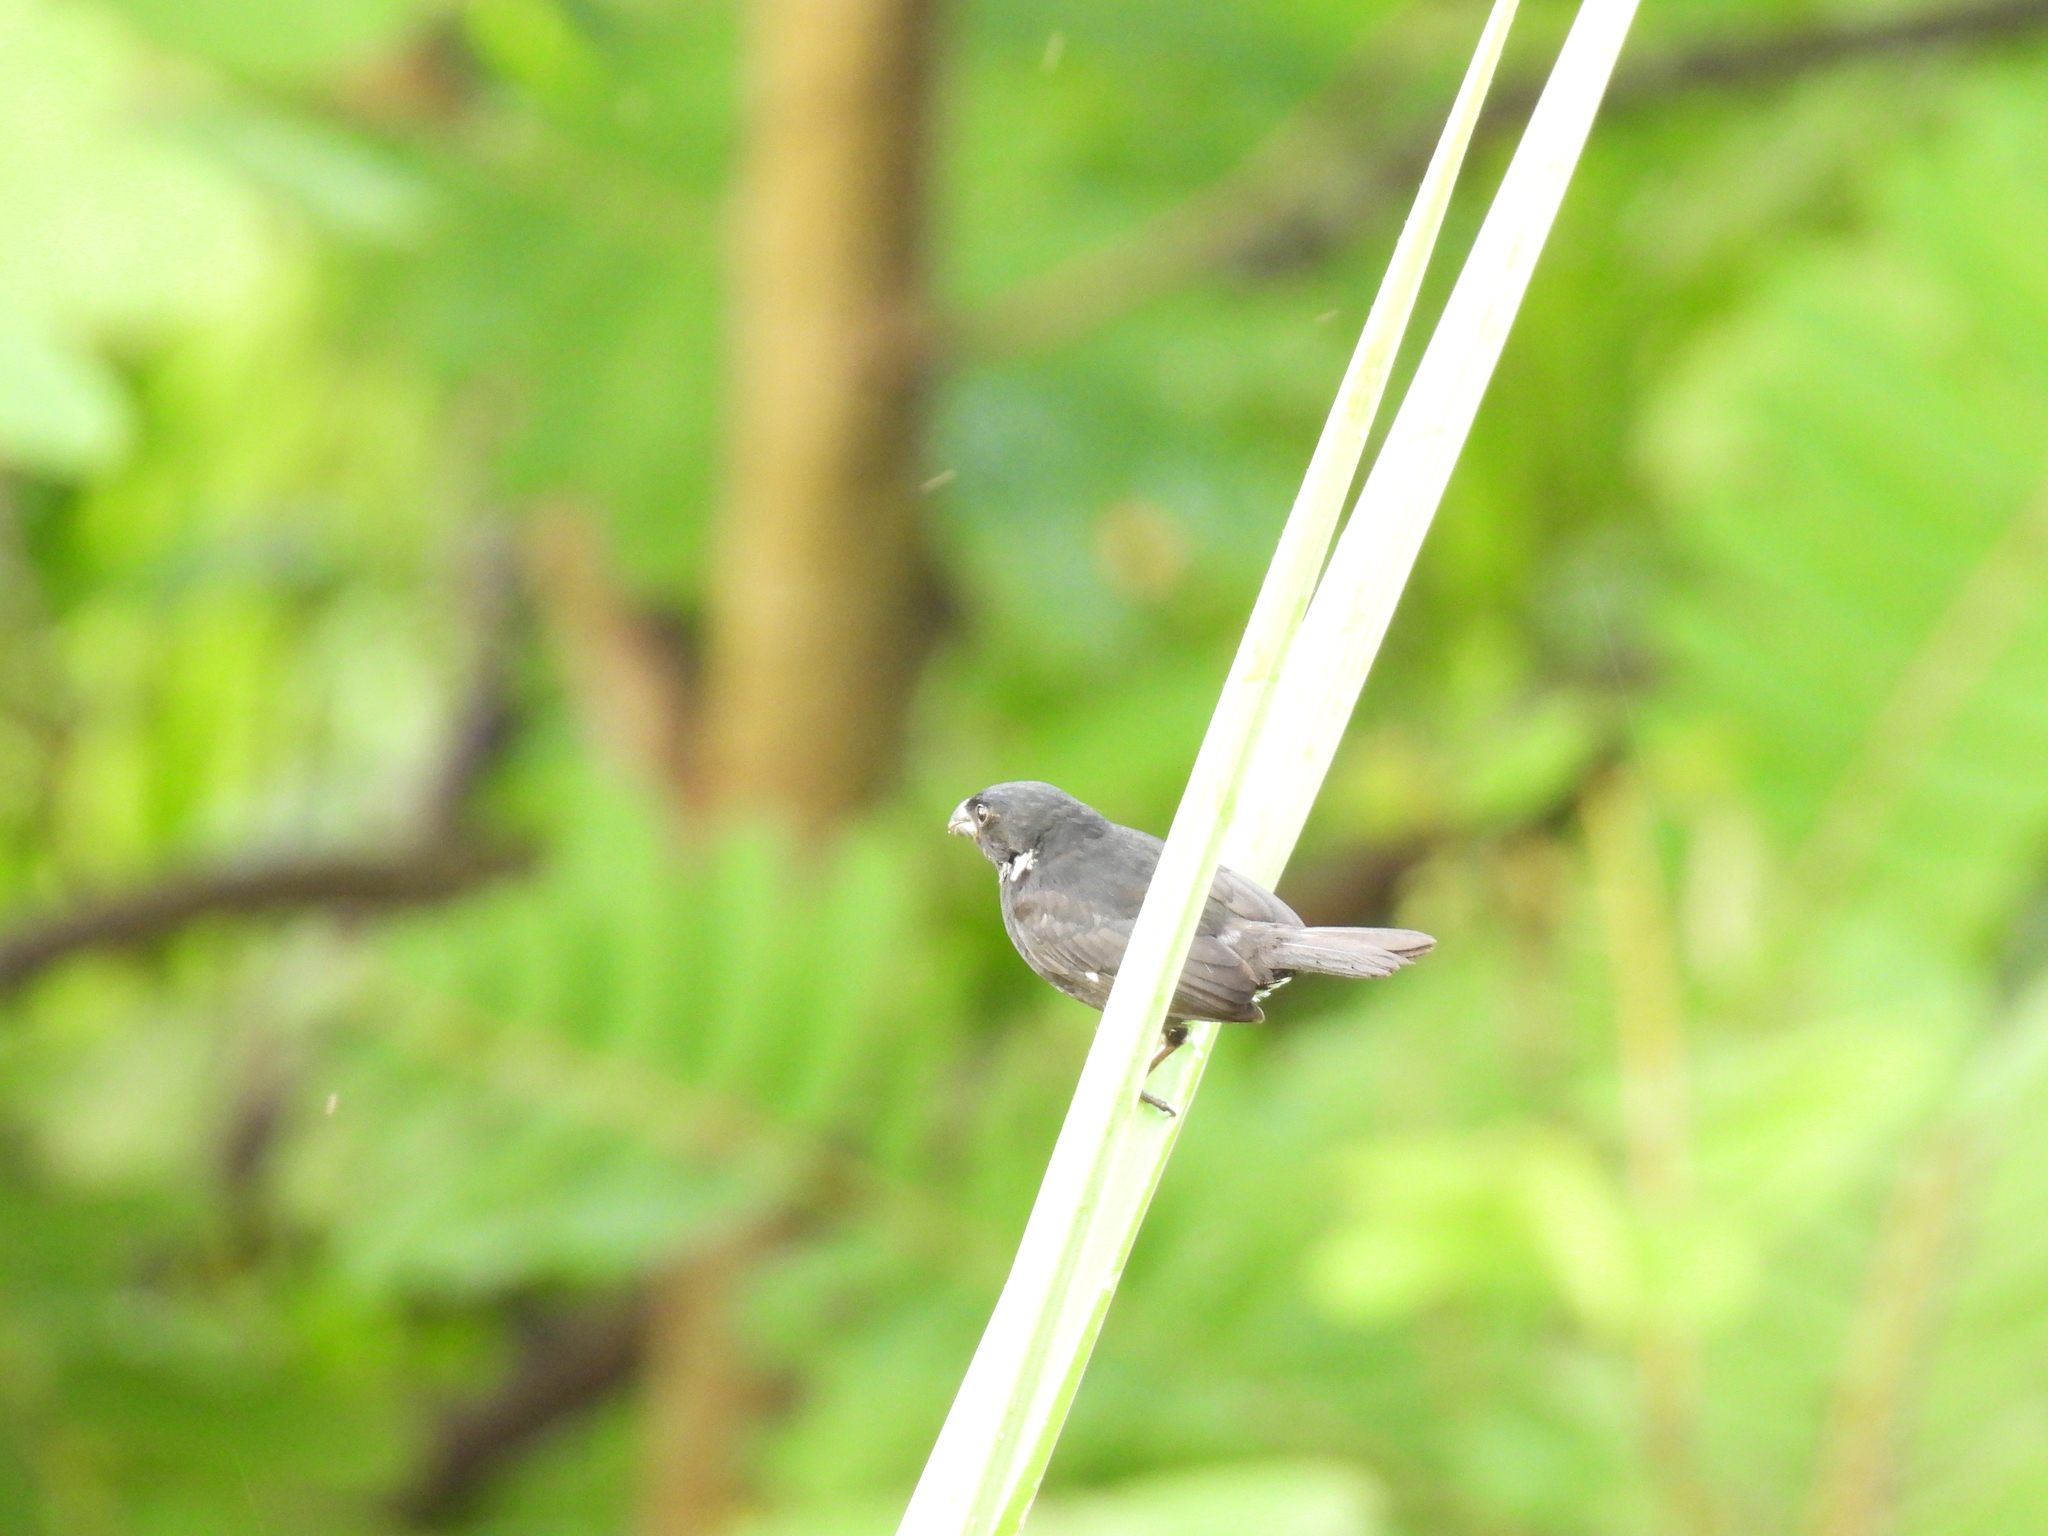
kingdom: Animalia
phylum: Chordata
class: Aves
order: Passeriformes
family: Thraupidae
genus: Sporophila
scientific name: Sporophila corvina
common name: Variable seedeater
